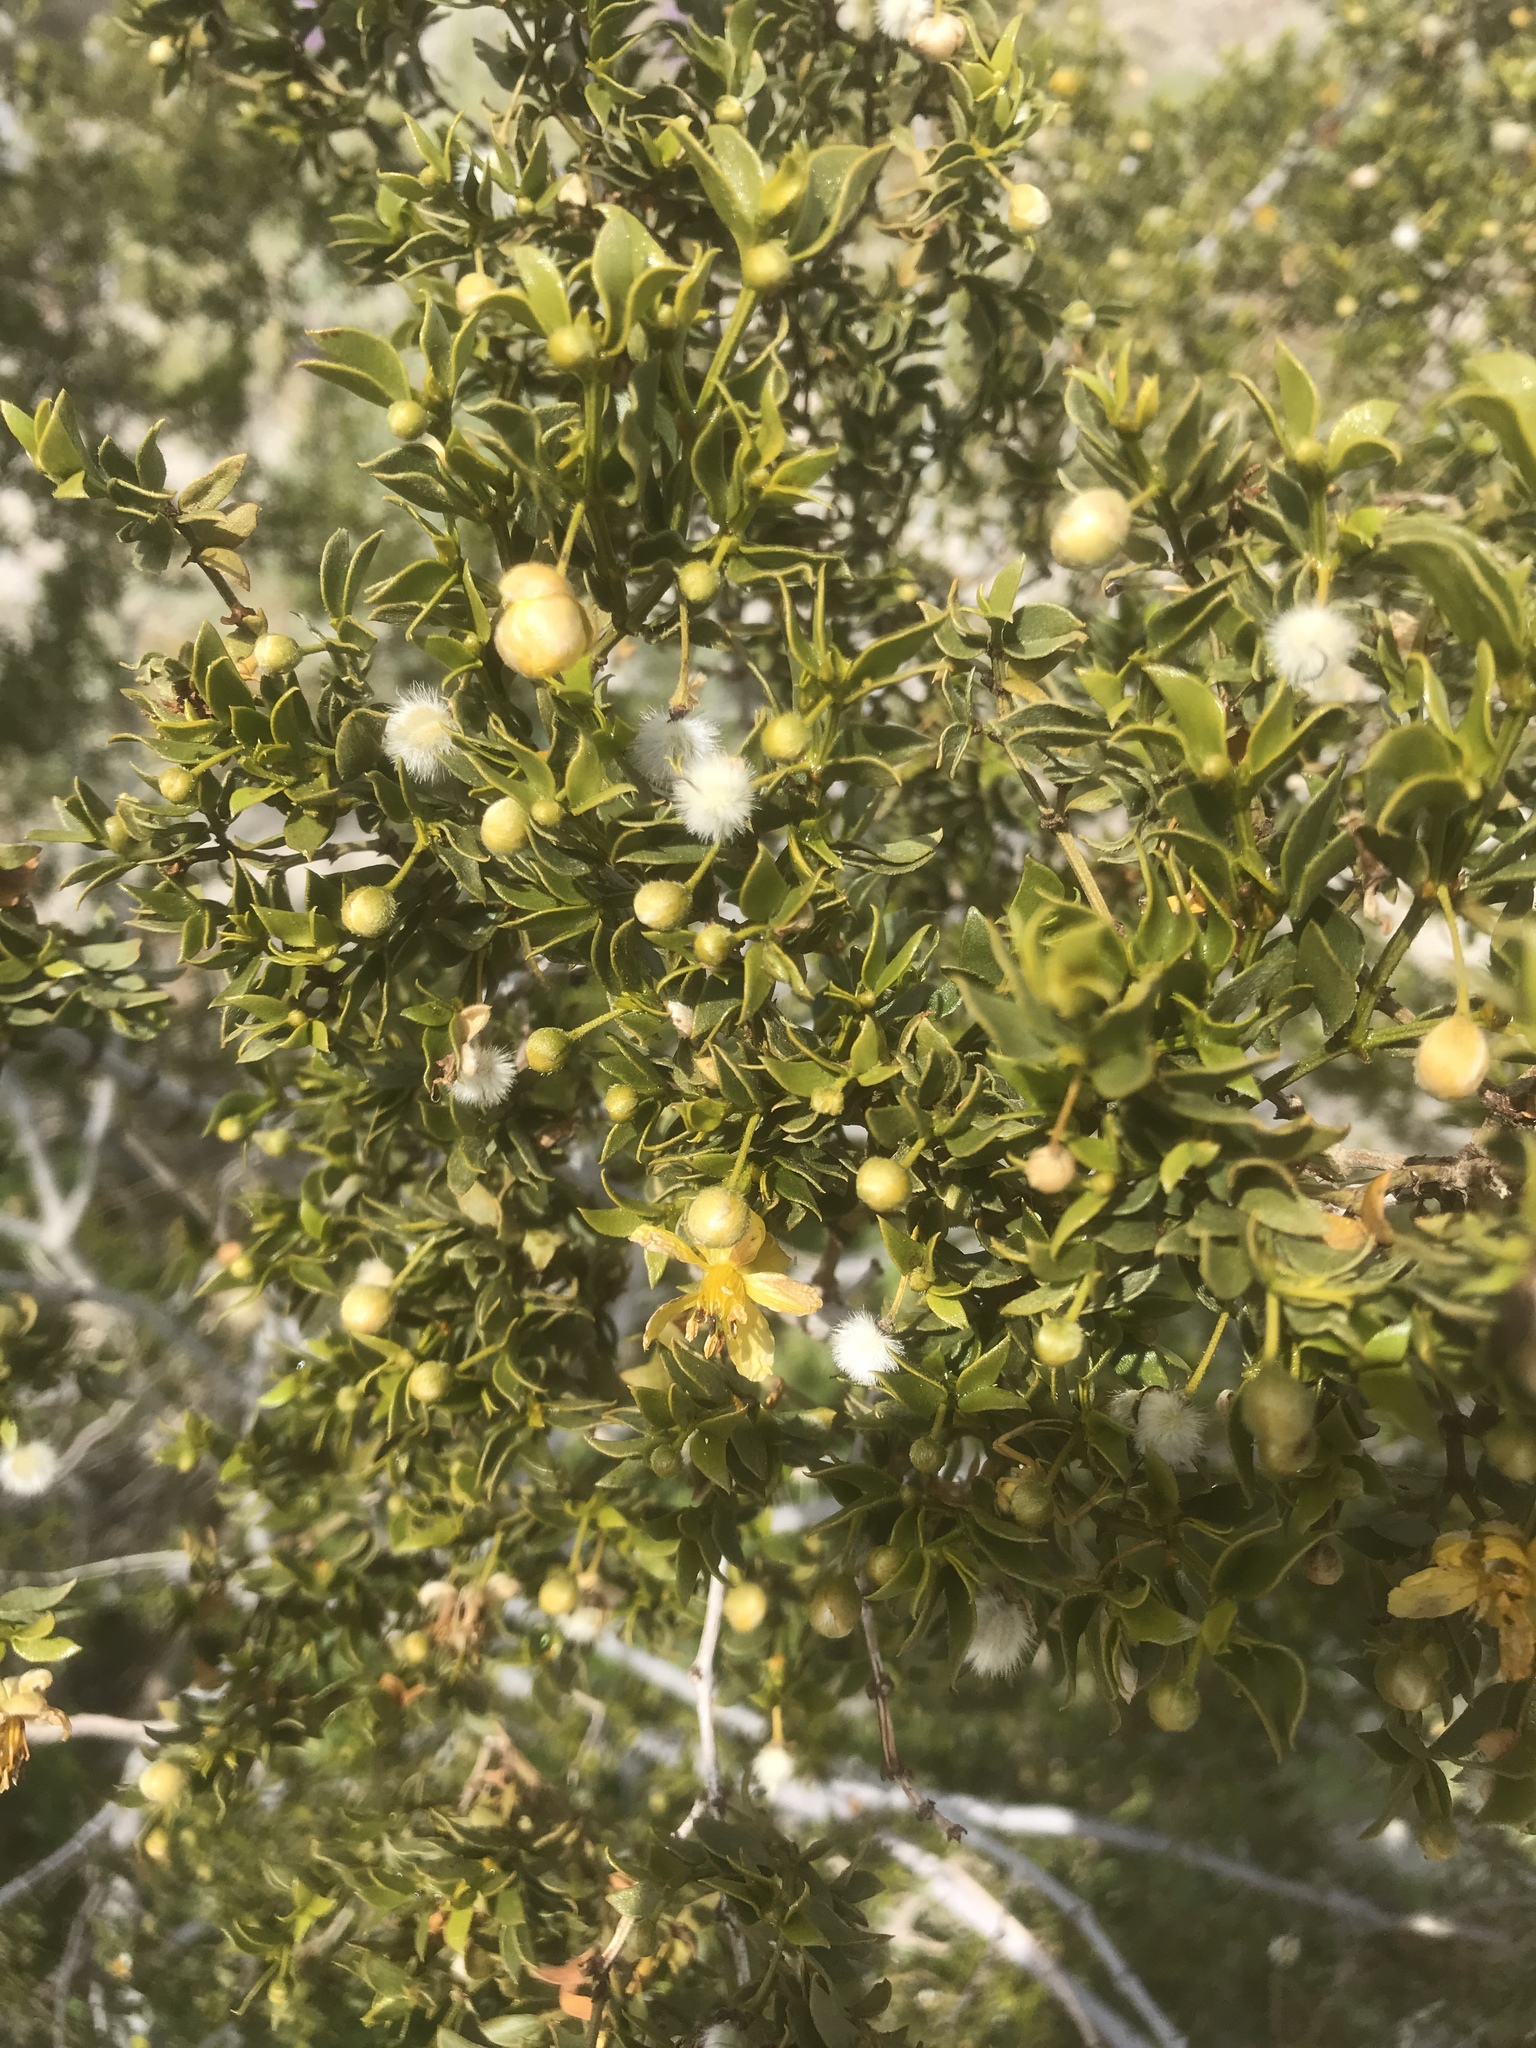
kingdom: Plantae
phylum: Tracheophyta
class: Magnoliopsida
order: Zygophyllales
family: Zygophyllaceae
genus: Larrea
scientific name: Larrea tridentata
